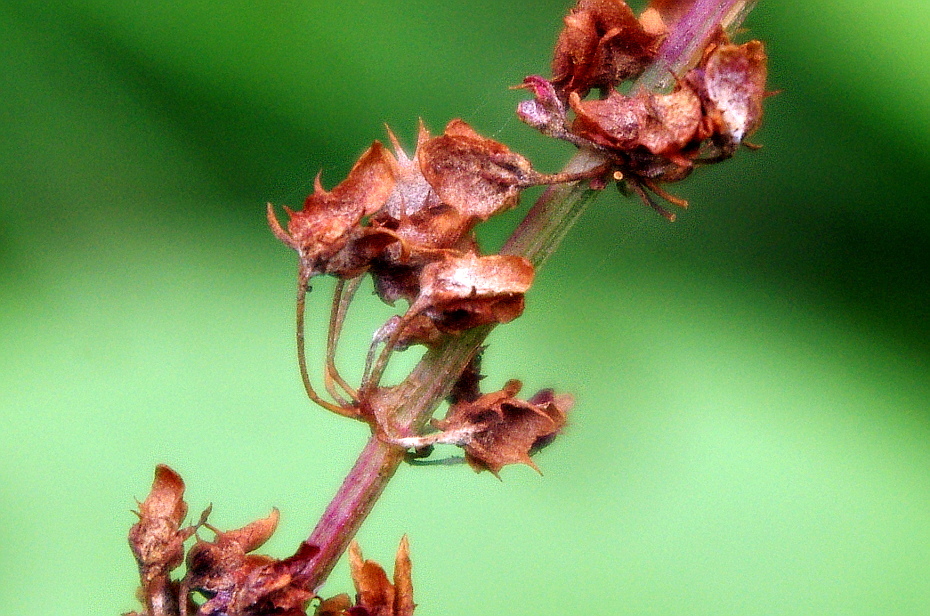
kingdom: Plantae
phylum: Tracheophyta
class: Magnoliopsida
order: Caryophyllales
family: Polygonaceae
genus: Rumex
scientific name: Rumex obtusifolius
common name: Bitter dock
